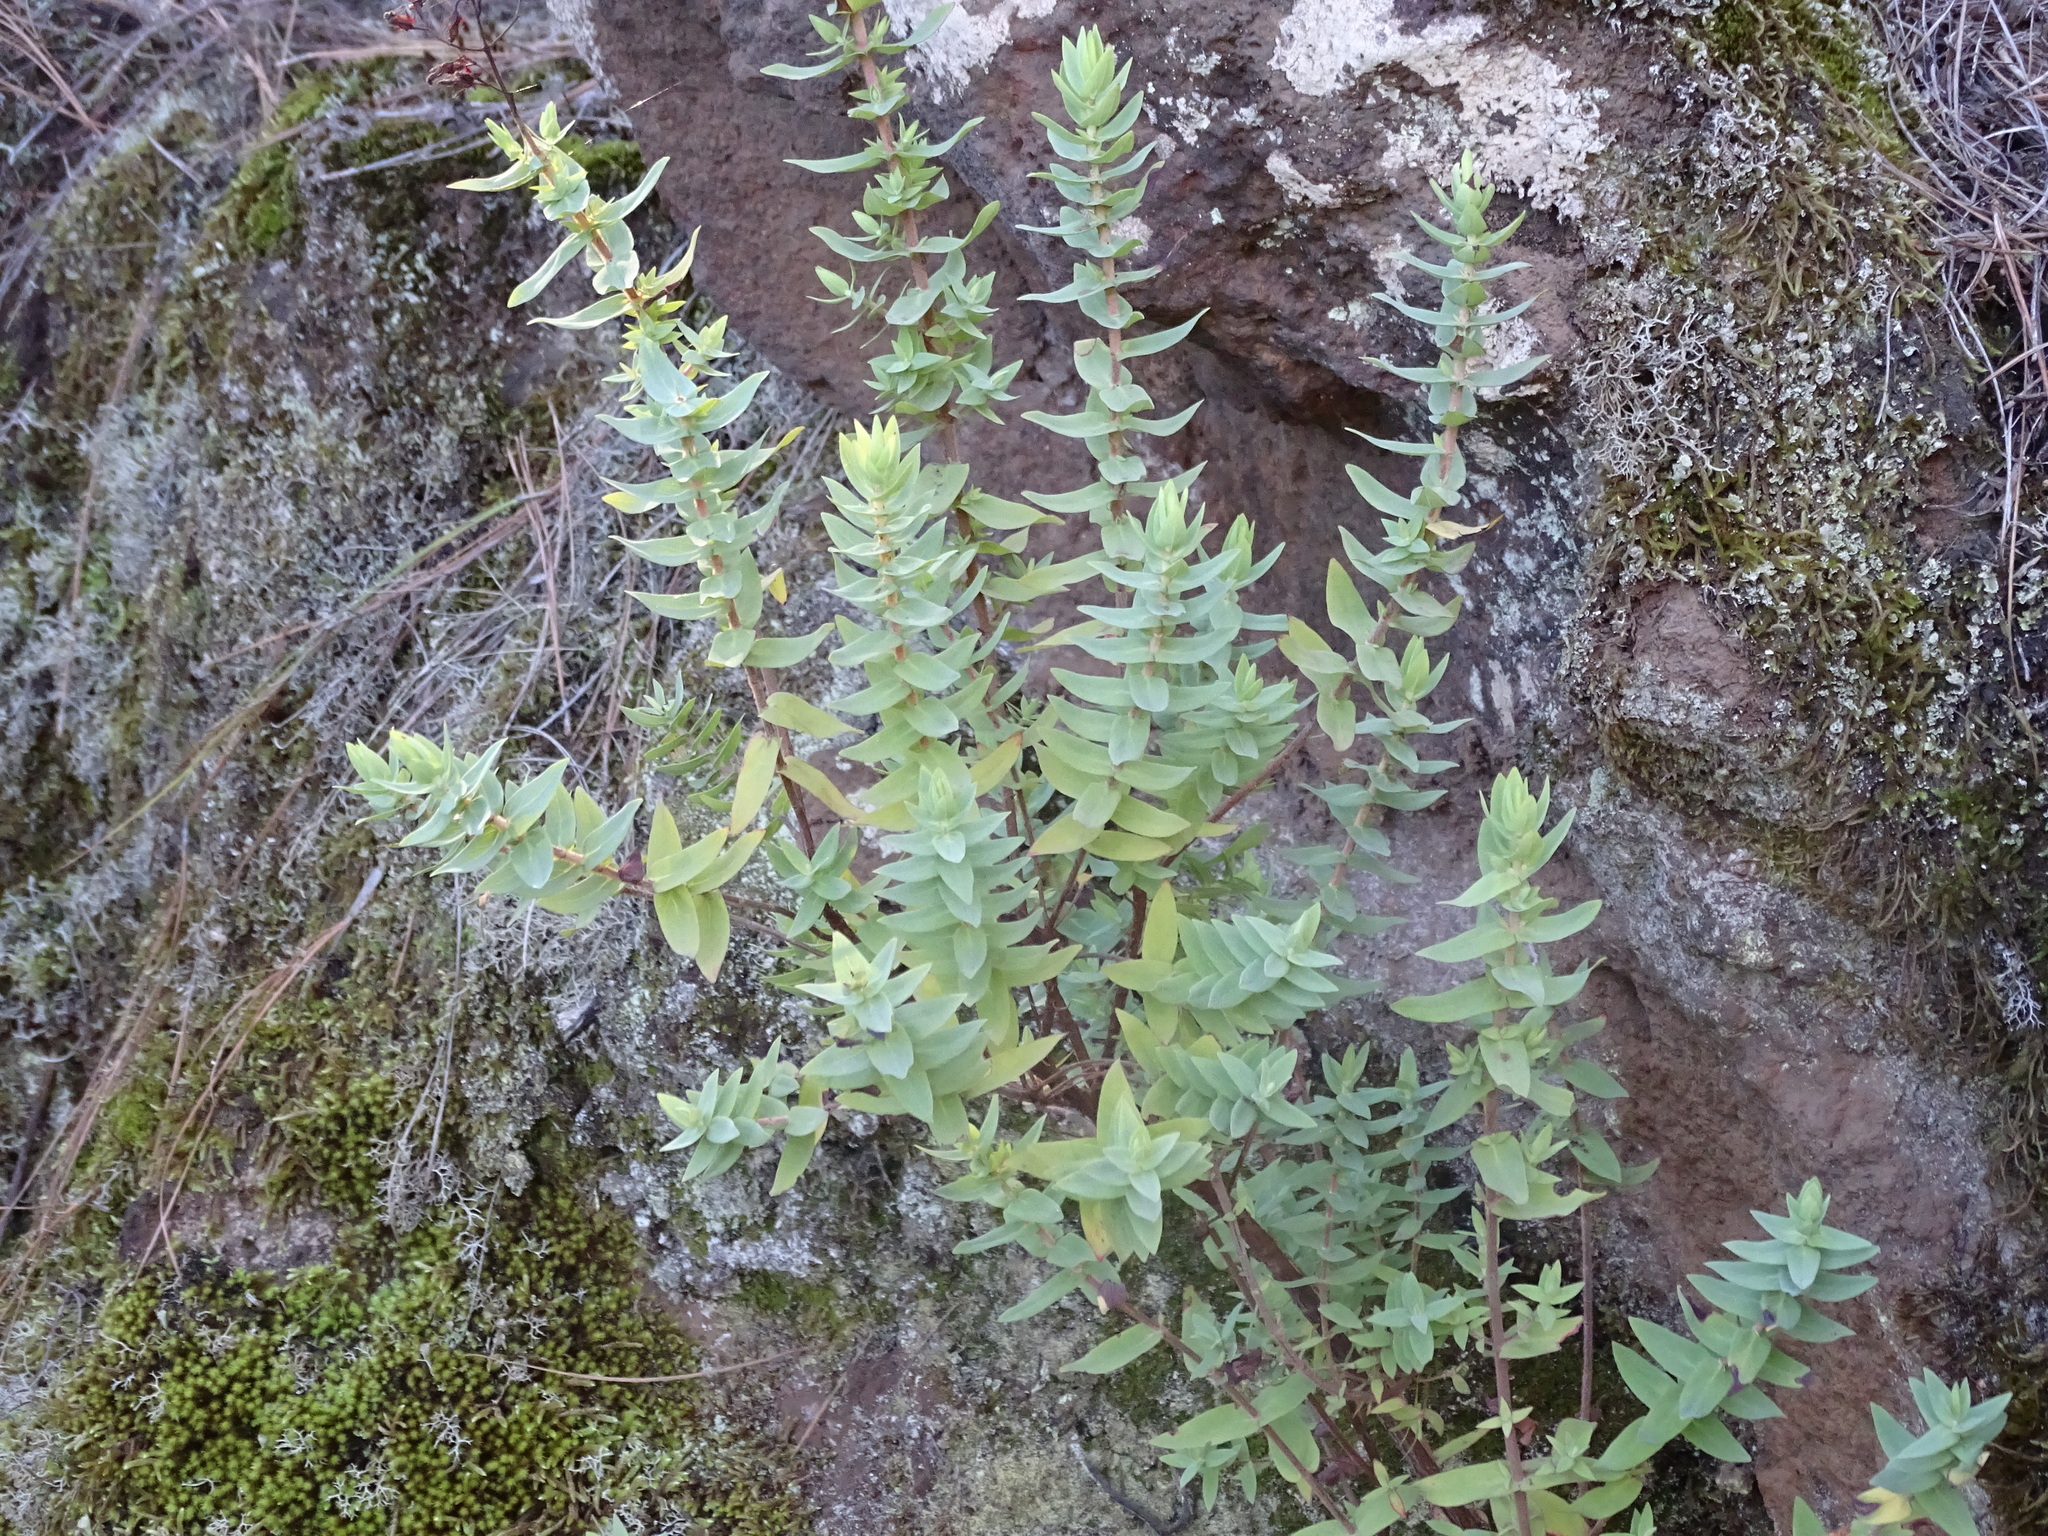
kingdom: Plantae
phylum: Tracheophyta
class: Magnoliopsida
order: Malpighiales
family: Hypericaceae
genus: Hypericum
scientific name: Hypericum reflexum
